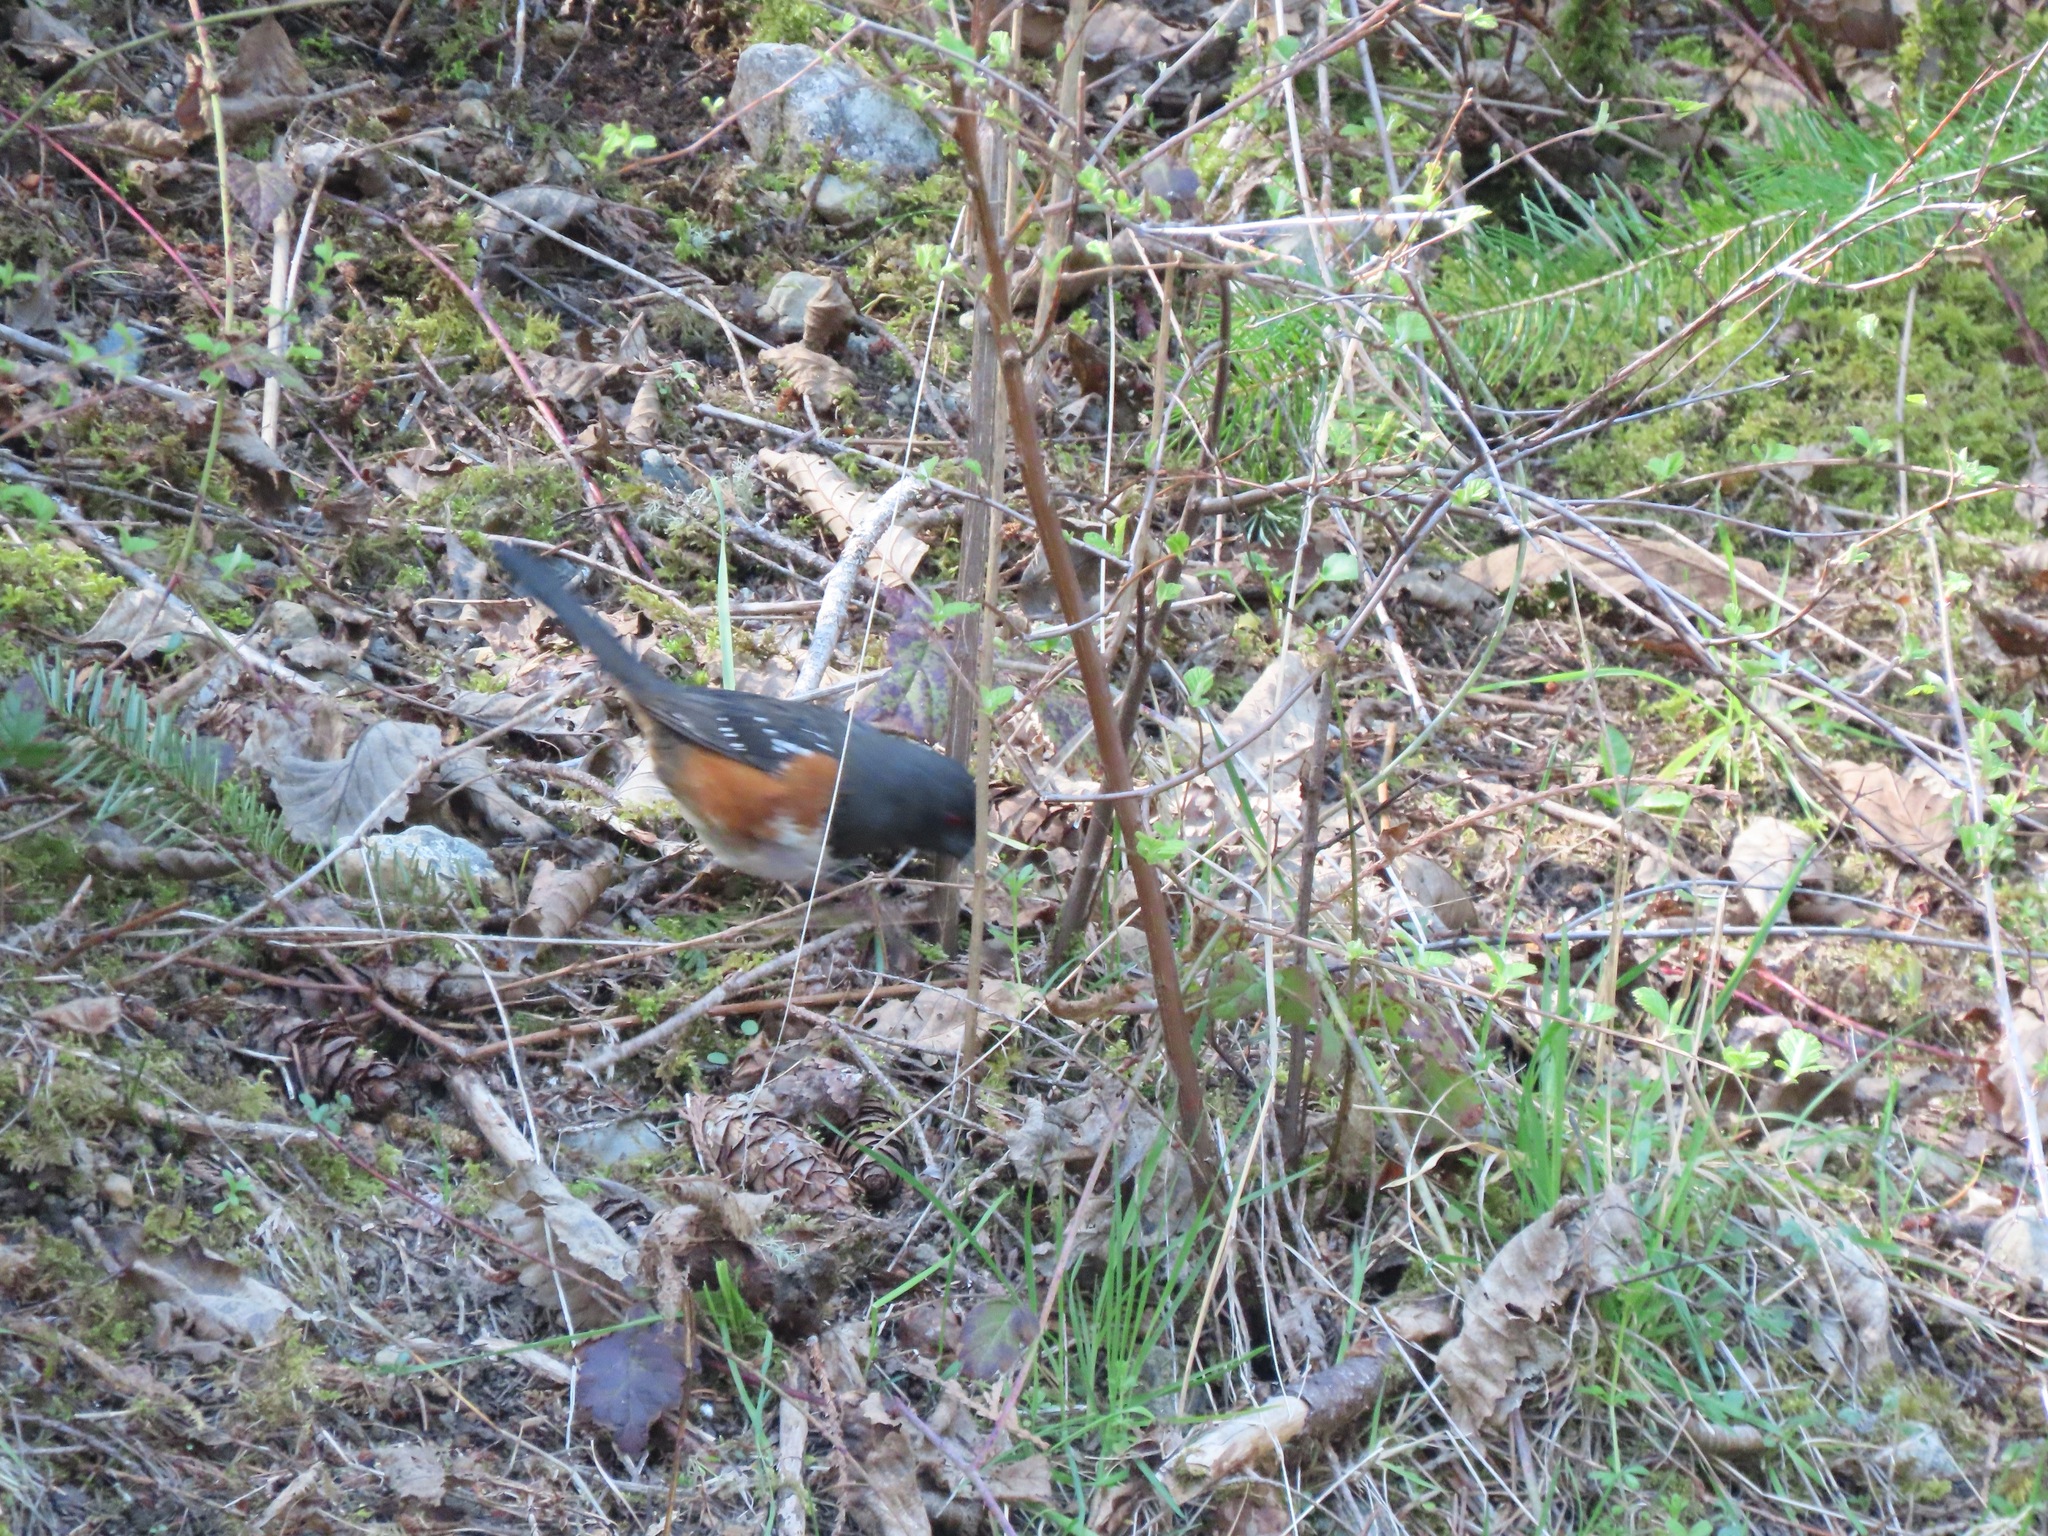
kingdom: Animalia
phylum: Chordata
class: Aves
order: Passeriformes
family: Passerellidae
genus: Pipilo
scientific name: Pipilo maculatus
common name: Spotted towhee
